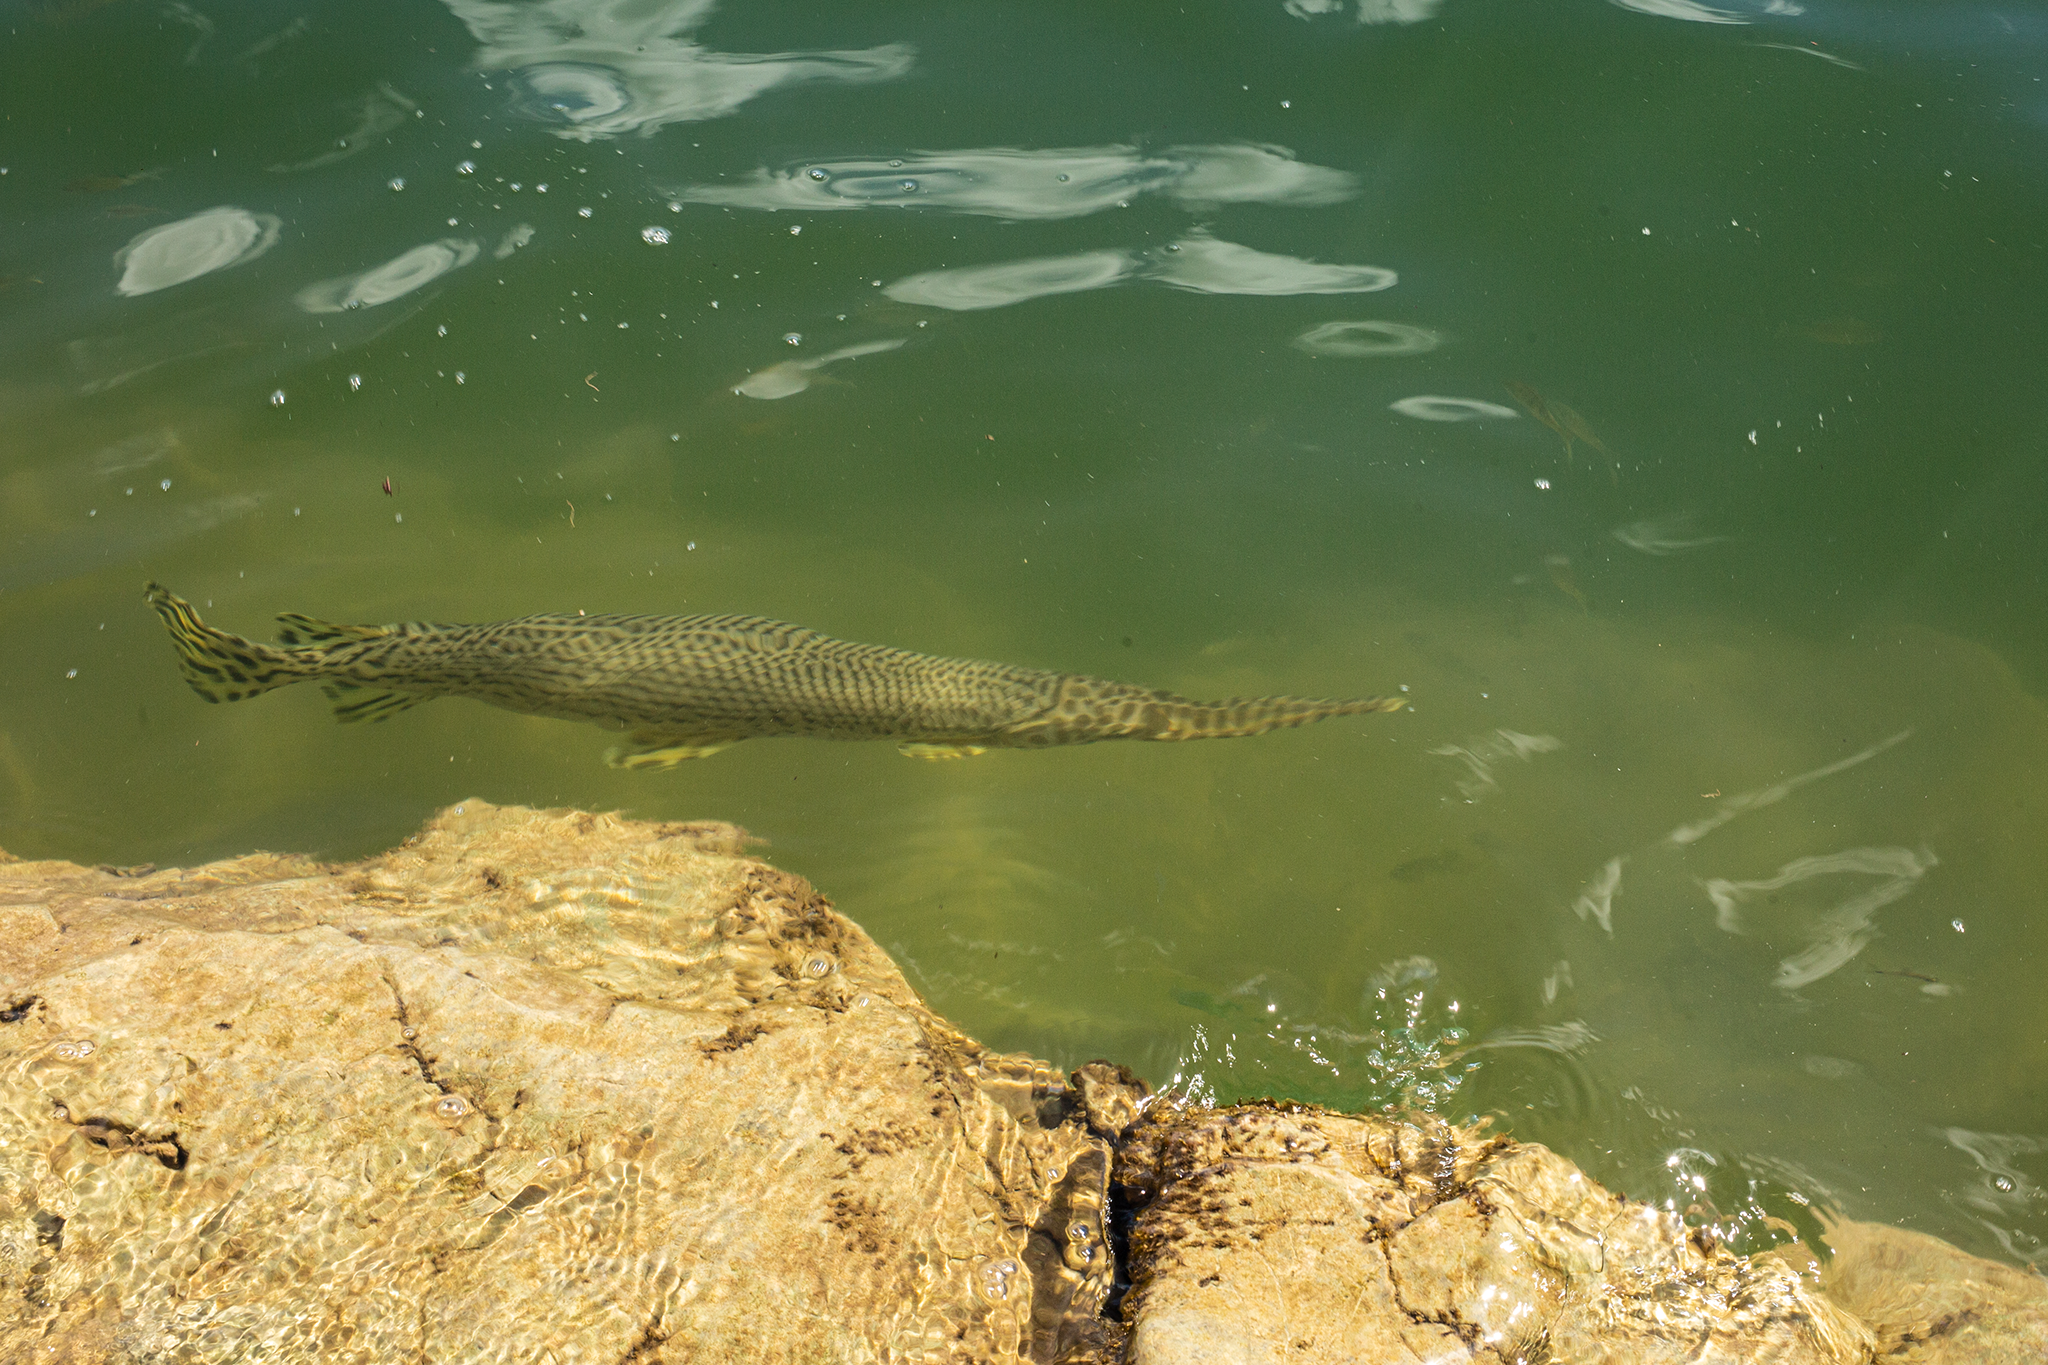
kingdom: Animalia
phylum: Chordata
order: Lepisosteiformes
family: Lepisosteidae
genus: Lepisosteus
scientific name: Lepisosteus oculatus
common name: Spotted gar
